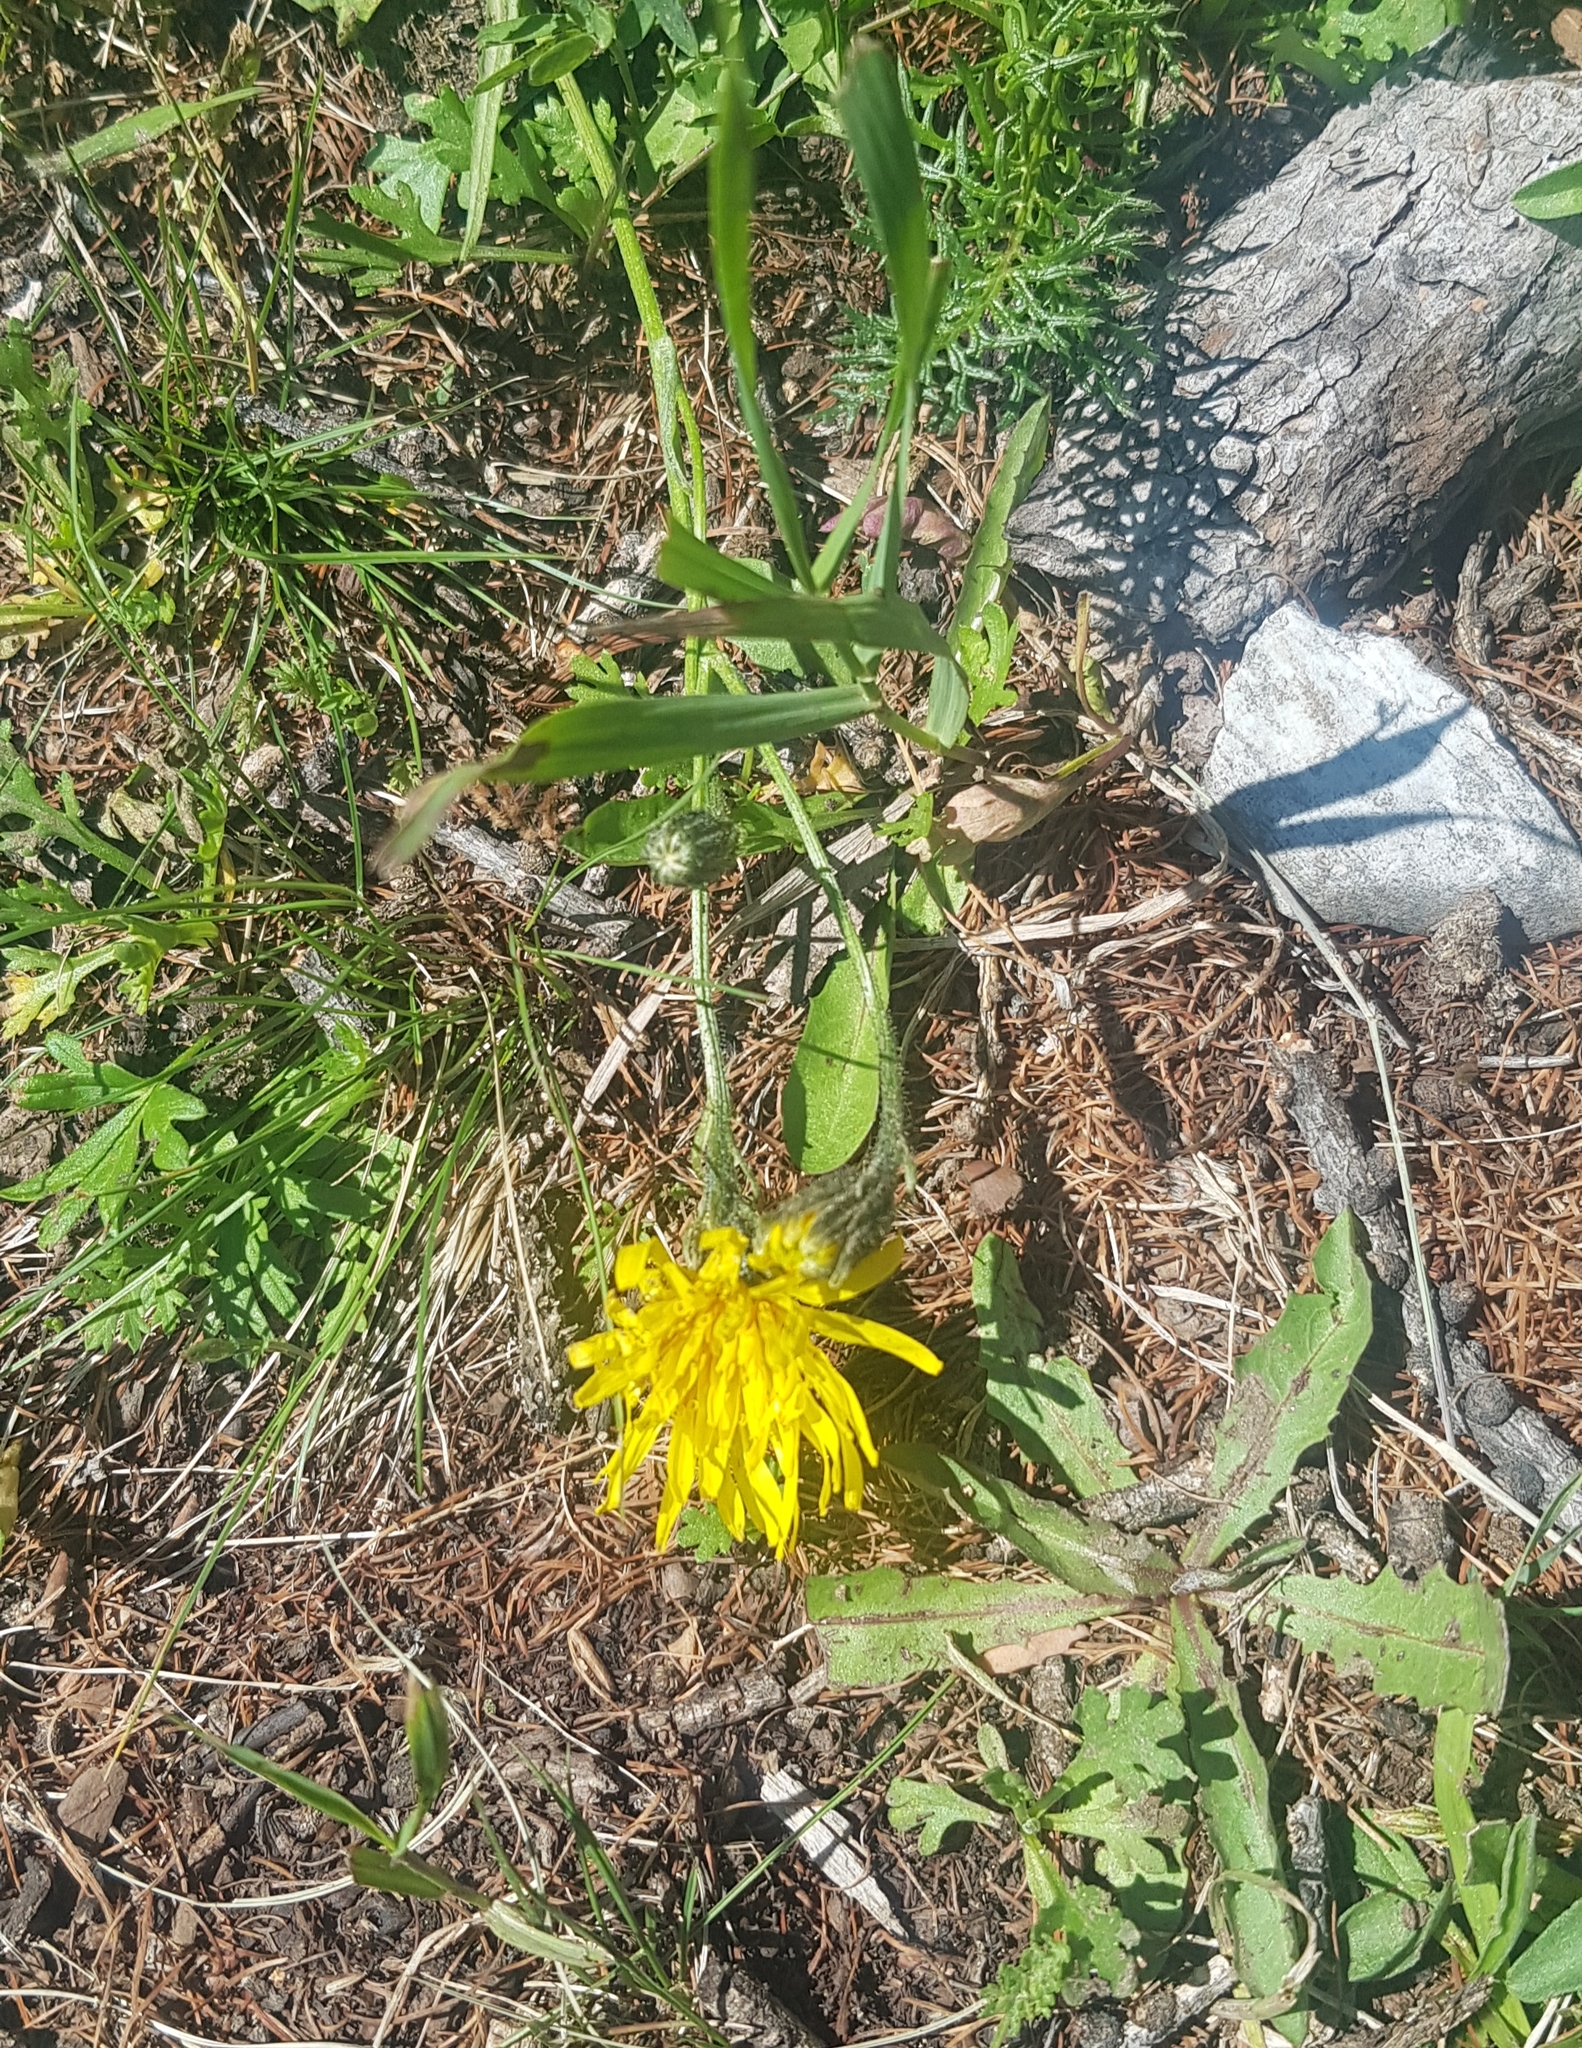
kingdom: Plantae
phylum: Tracheophyta
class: Magnoliopsida
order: Asterales
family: Asteraceae
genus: Trommsdorffia
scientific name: Trommsdorffia maculata
